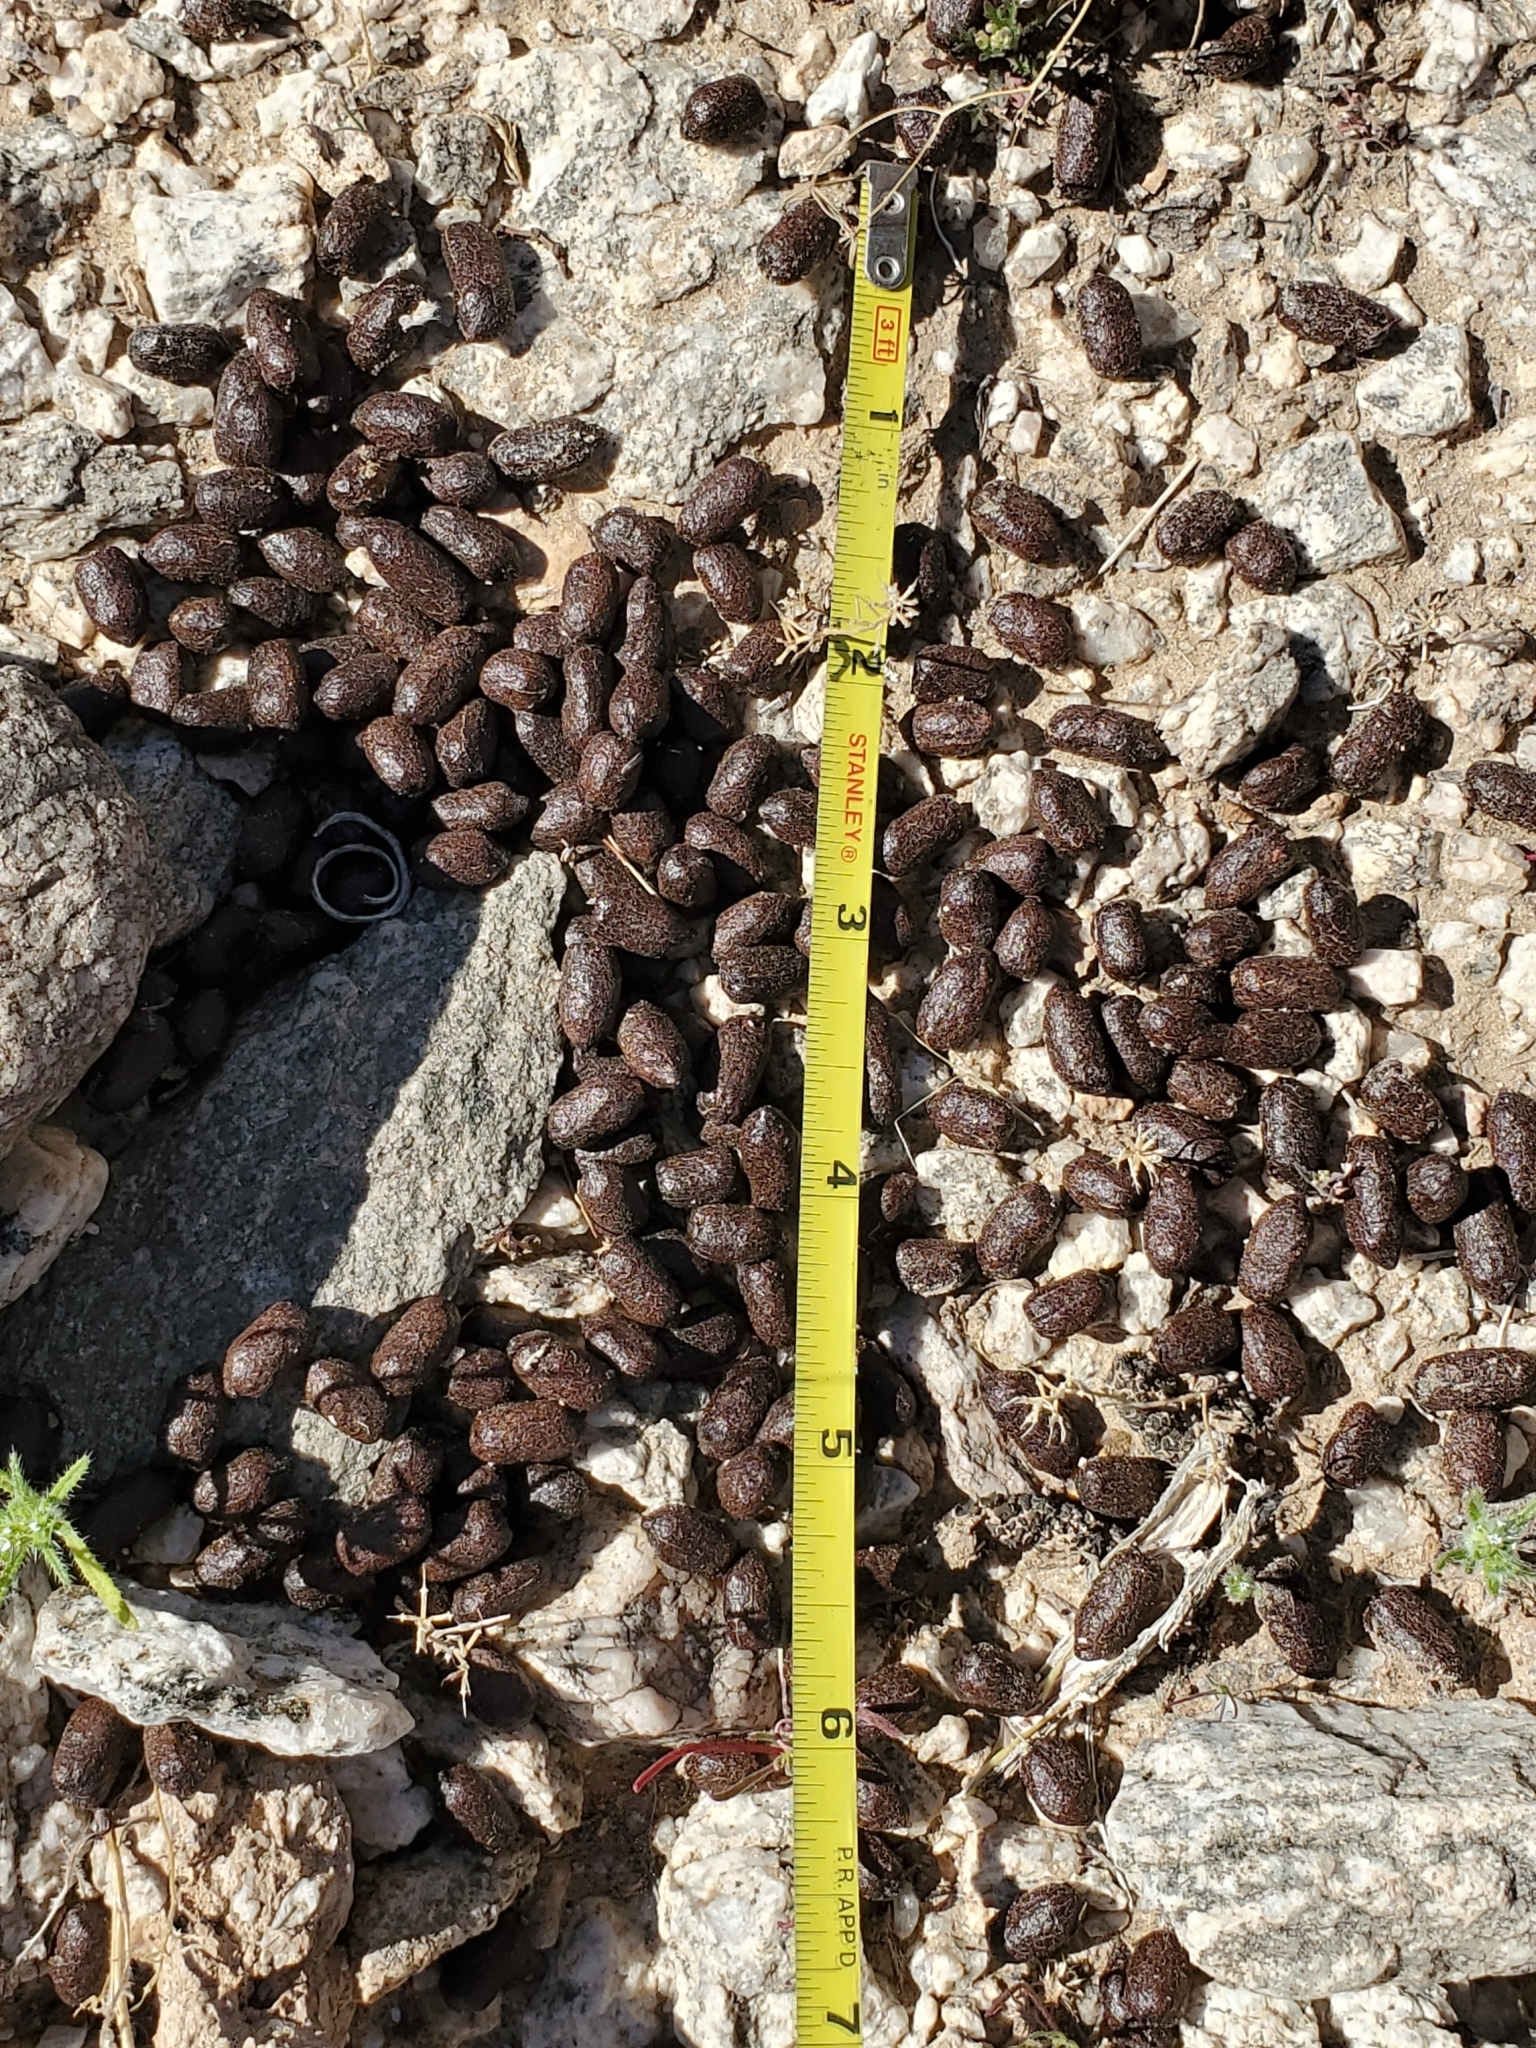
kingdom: Animalia
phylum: Chordata
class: Mammalia
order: Artiodactyla
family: Cervidae
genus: Odocoileus
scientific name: Odocoileus hemionus
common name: Mule deer
